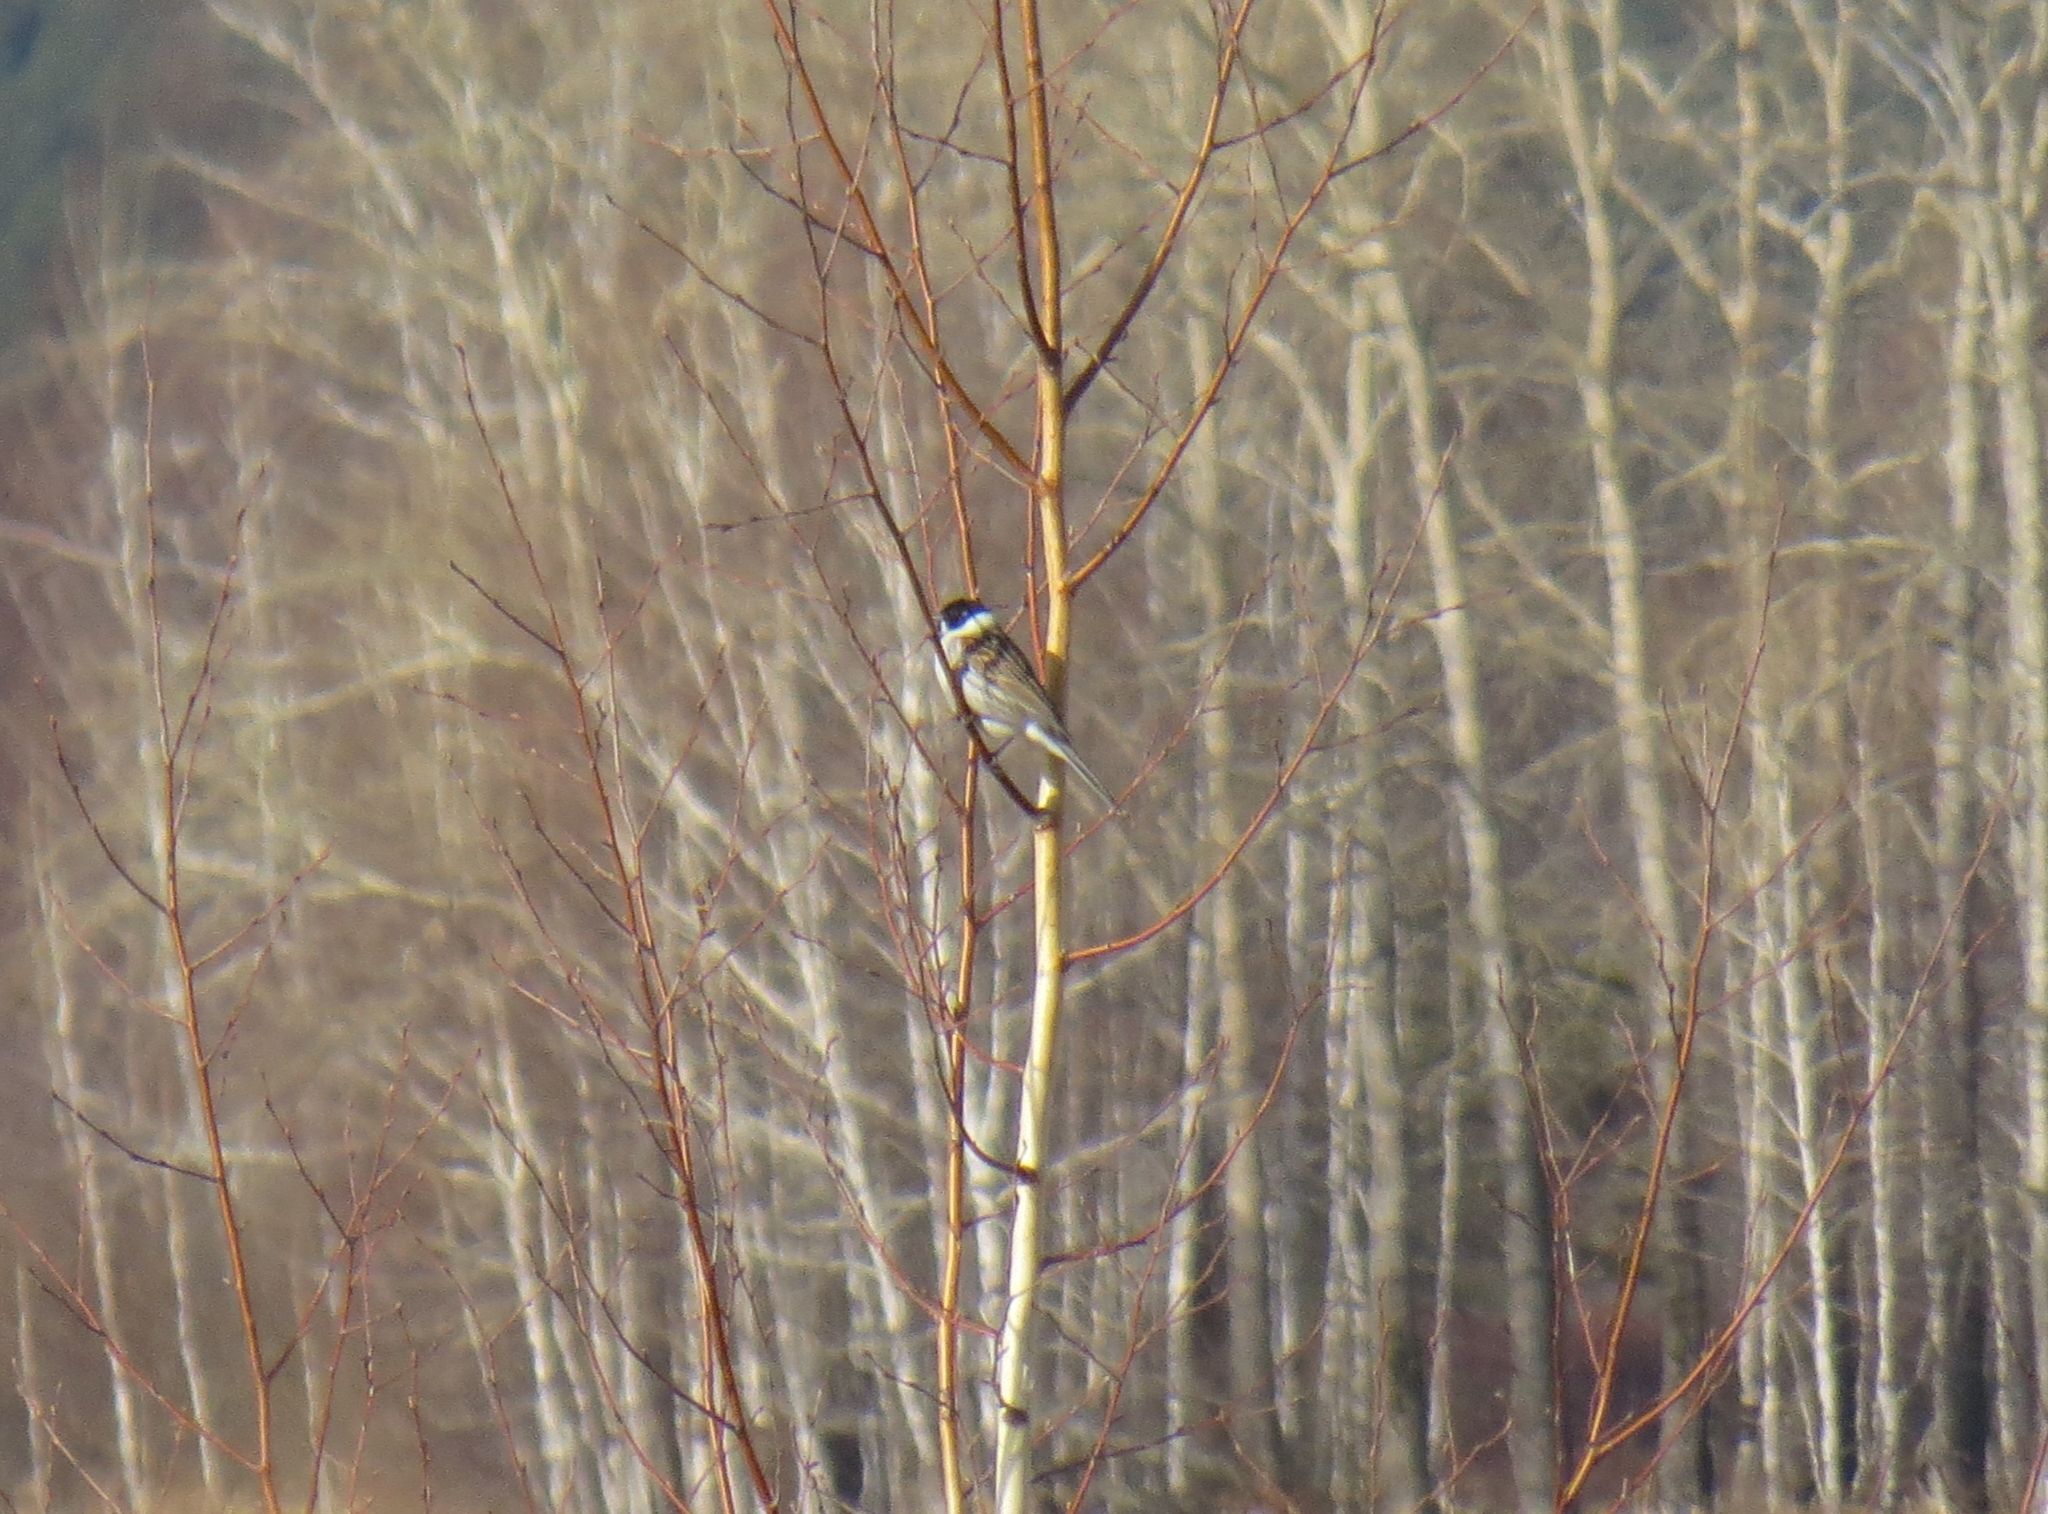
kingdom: Animalia
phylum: Chordata
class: Aves
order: Passeriformes
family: Emberizidae
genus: Emberiza
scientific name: Emberiza schoeniclus
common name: Reed bunting
